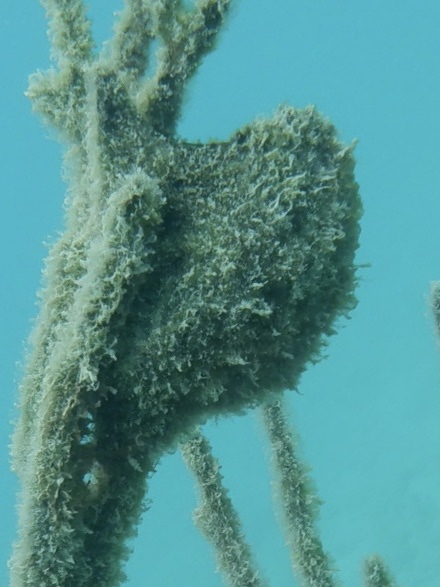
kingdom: Animalia
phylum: Mollusca
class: Bivalvia
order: Ostreida
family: Pteriidae
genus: Pteria
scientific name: Pteria colymbus
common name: Atlantic wing-oyster
